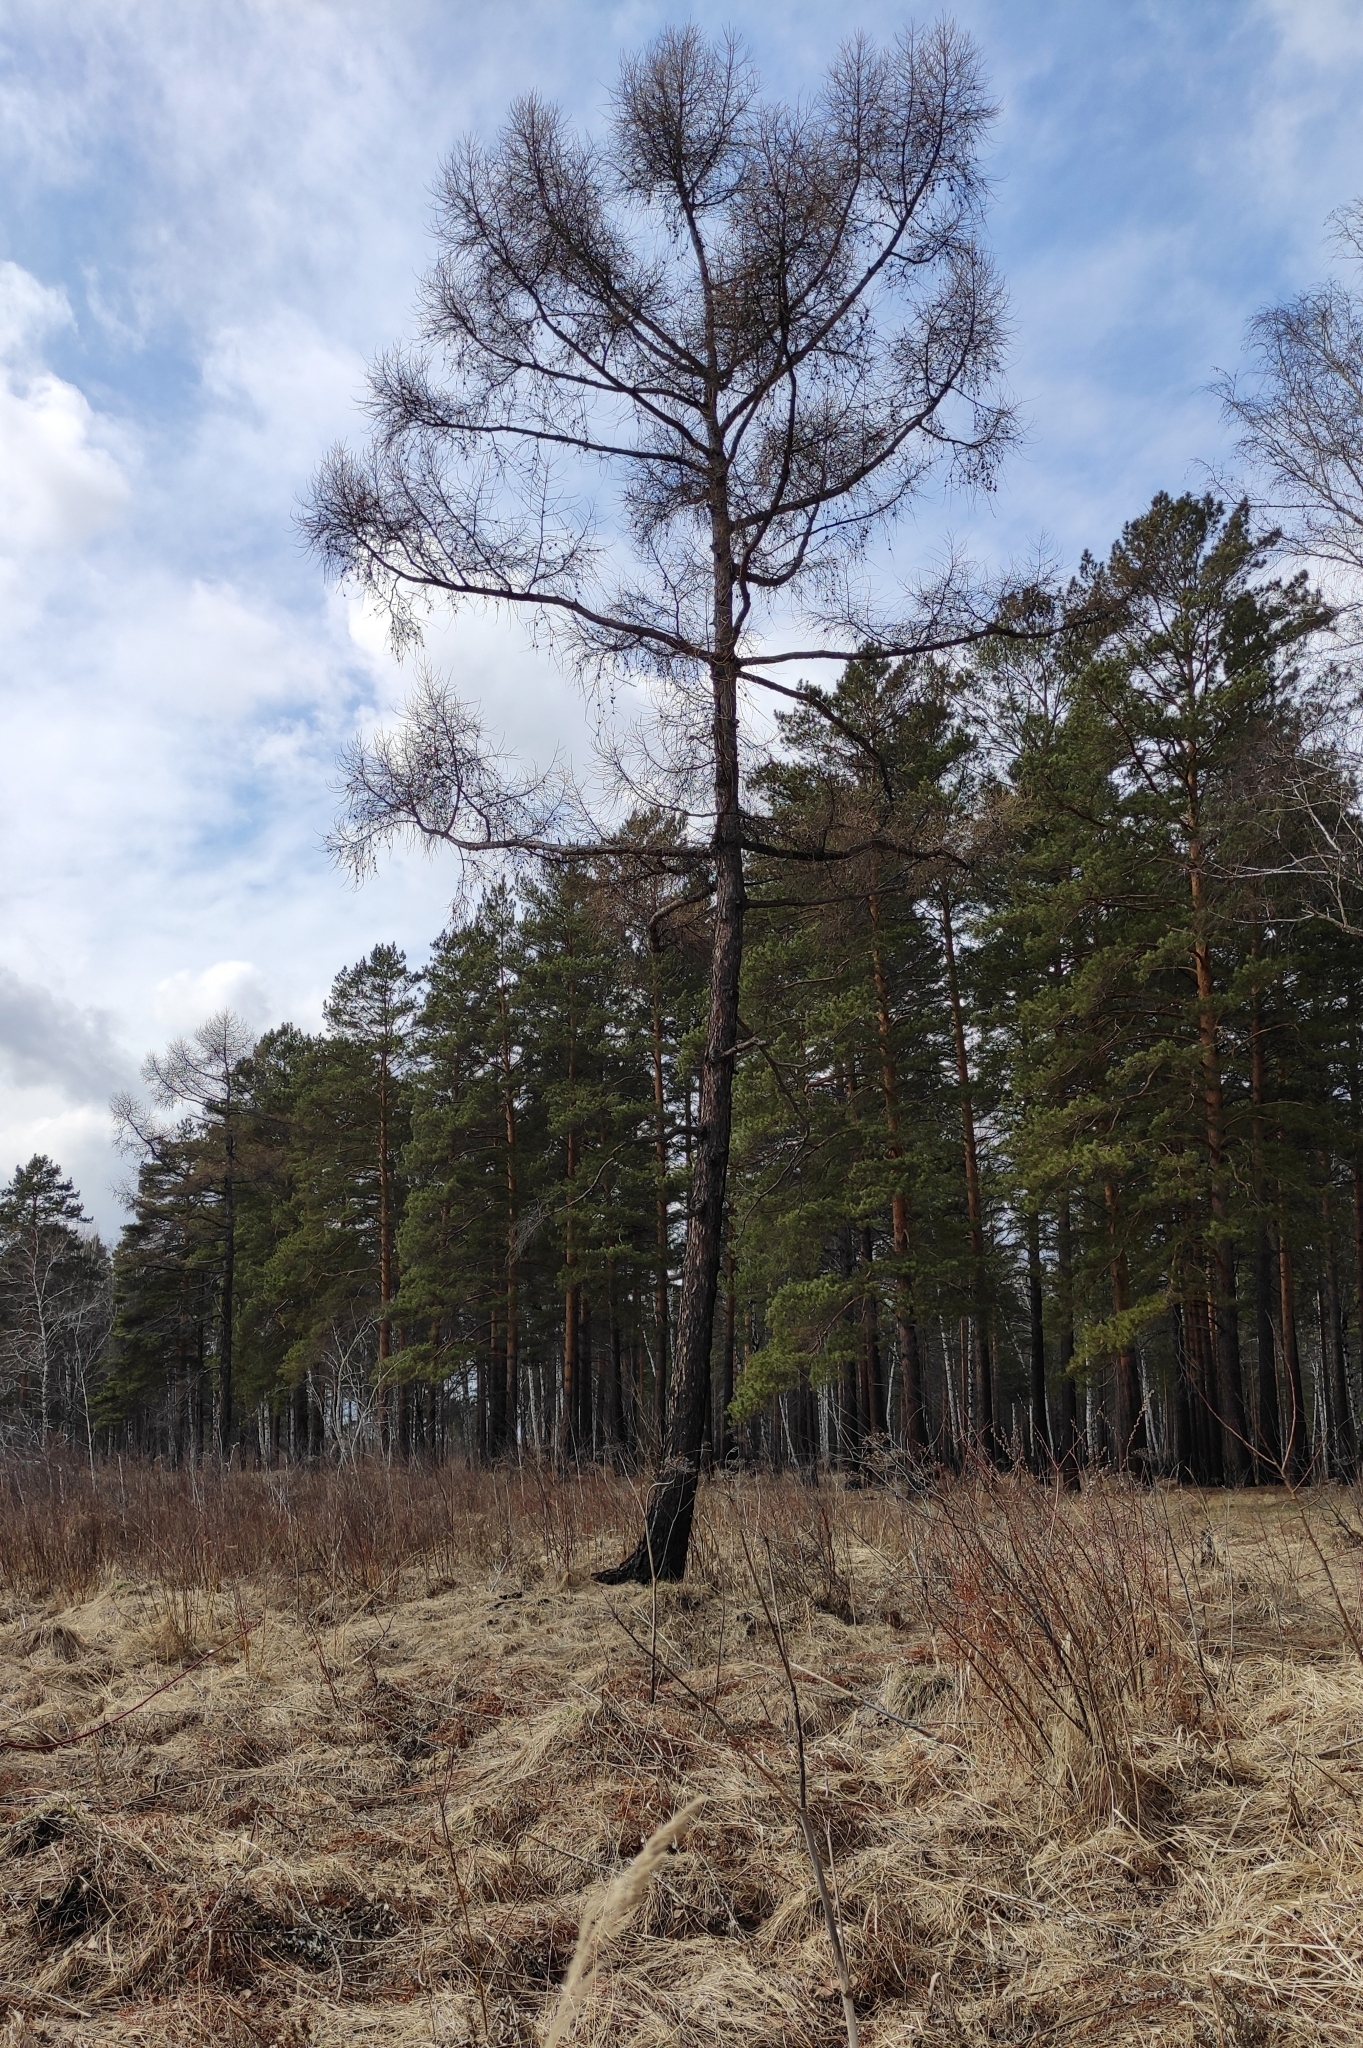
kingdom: Plantae
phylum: Tracheophyta
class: Pinopsida
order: Pinales
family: Pinaceae
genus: Larix
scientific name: Larix sibirica
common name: Siberian larch
